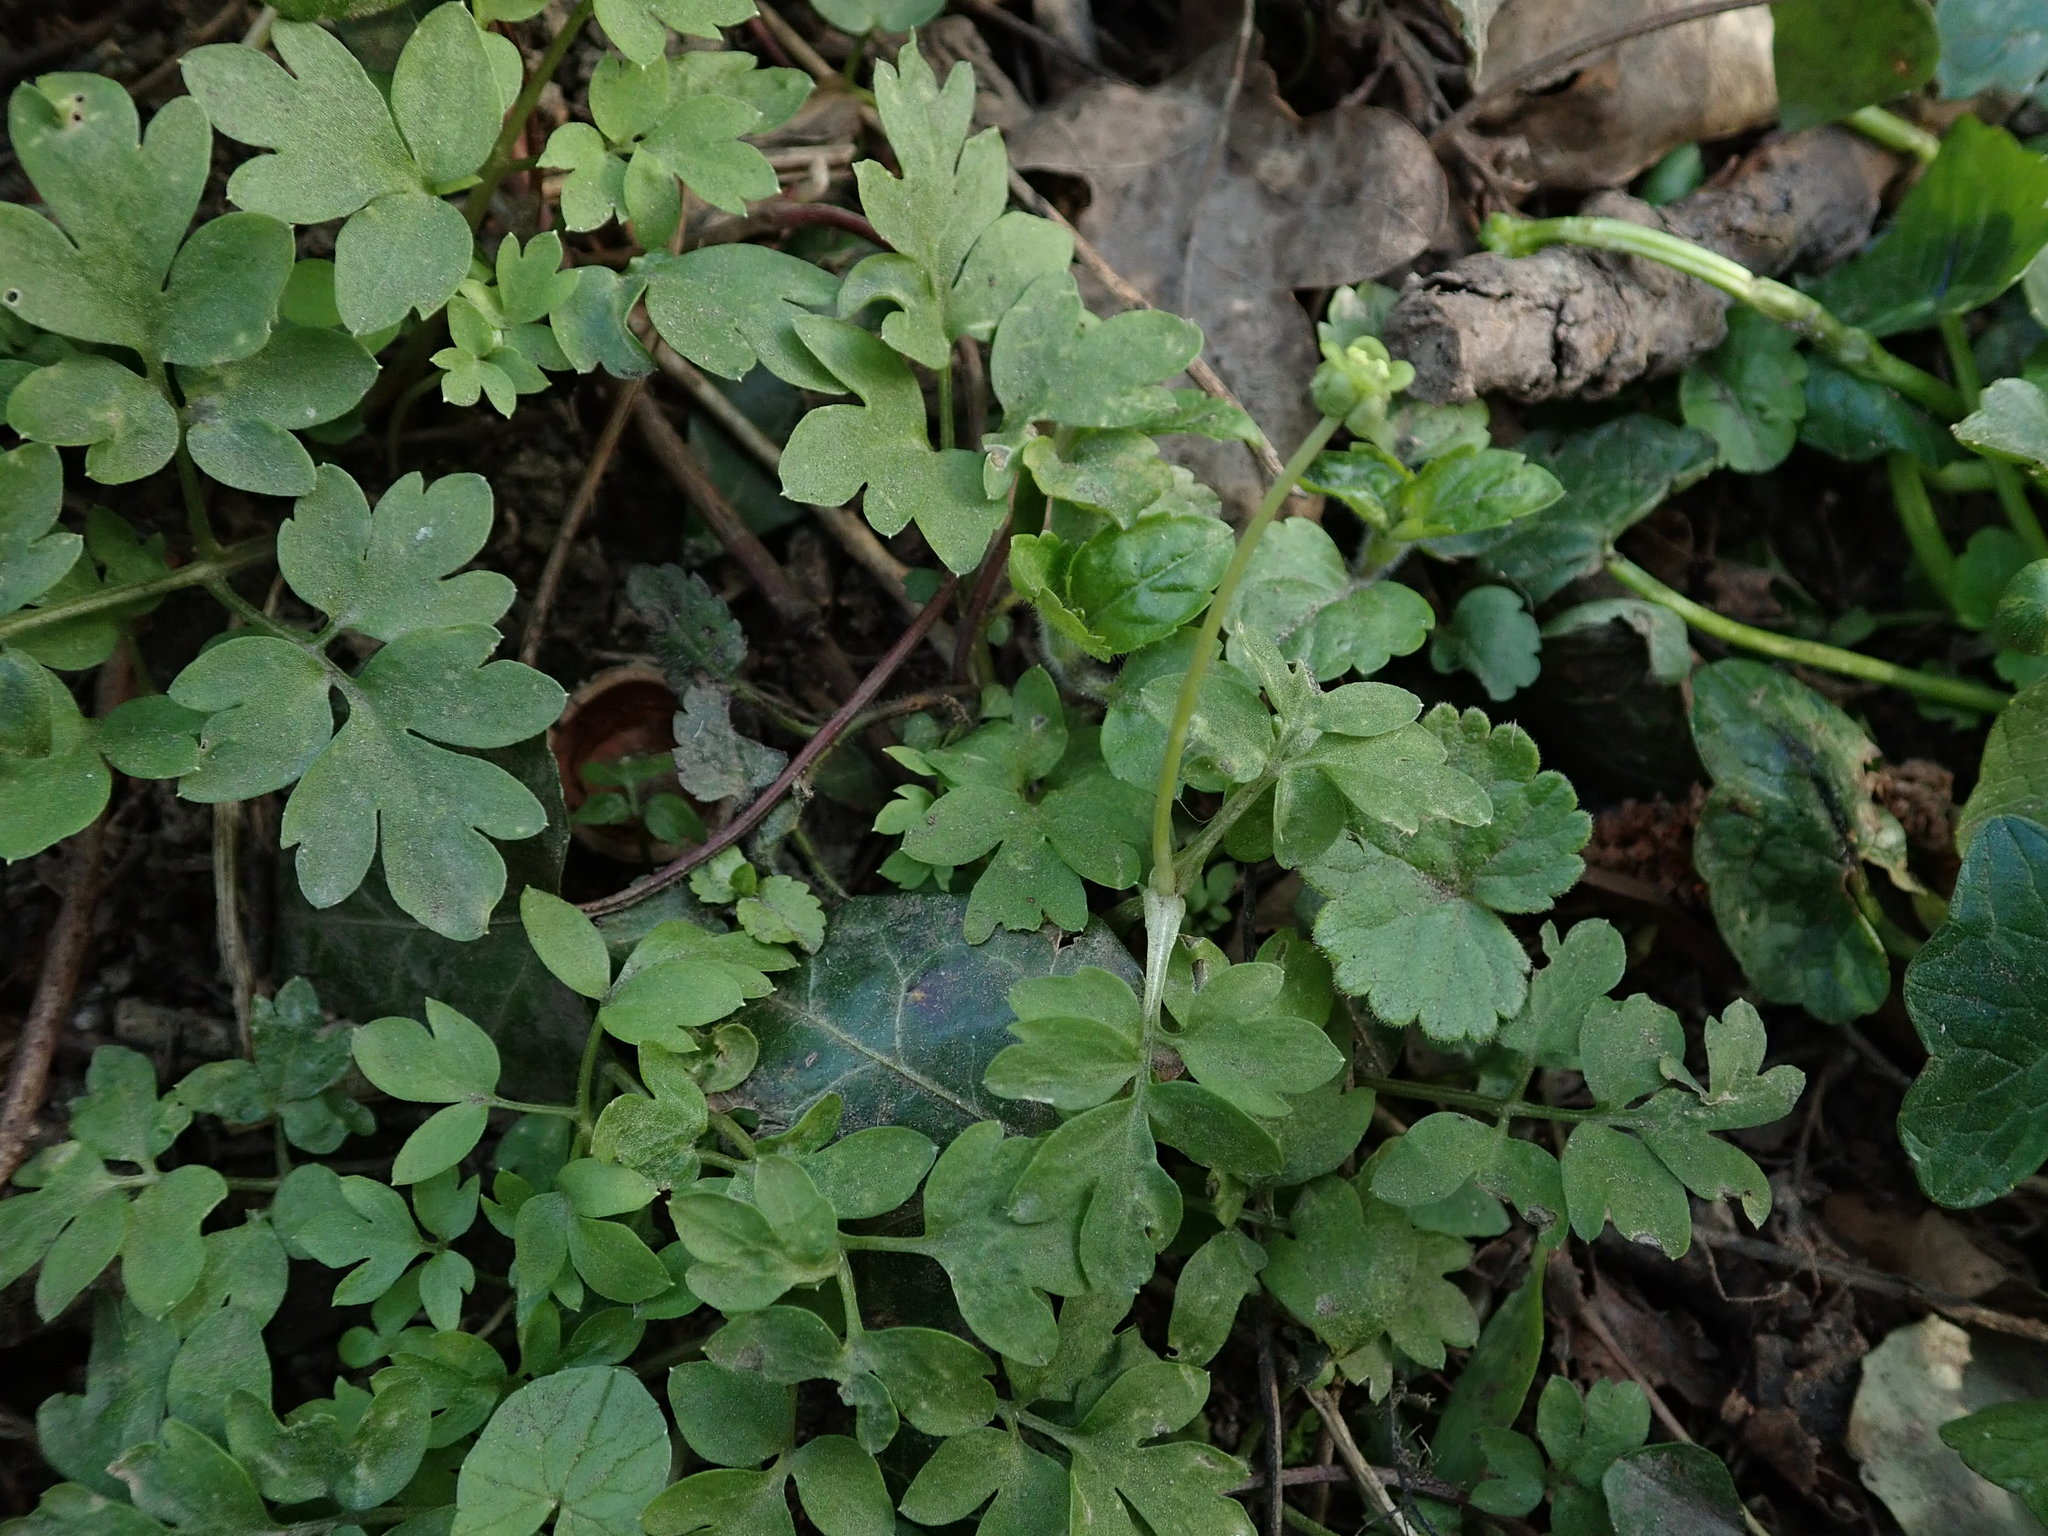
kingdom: Plantae
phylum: Tracheophyta
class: Magnoliopsida
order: Dipsacales
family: Viburnaceae
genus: Adoxa
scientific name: Adoxa moschatellina
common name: Moschatel
